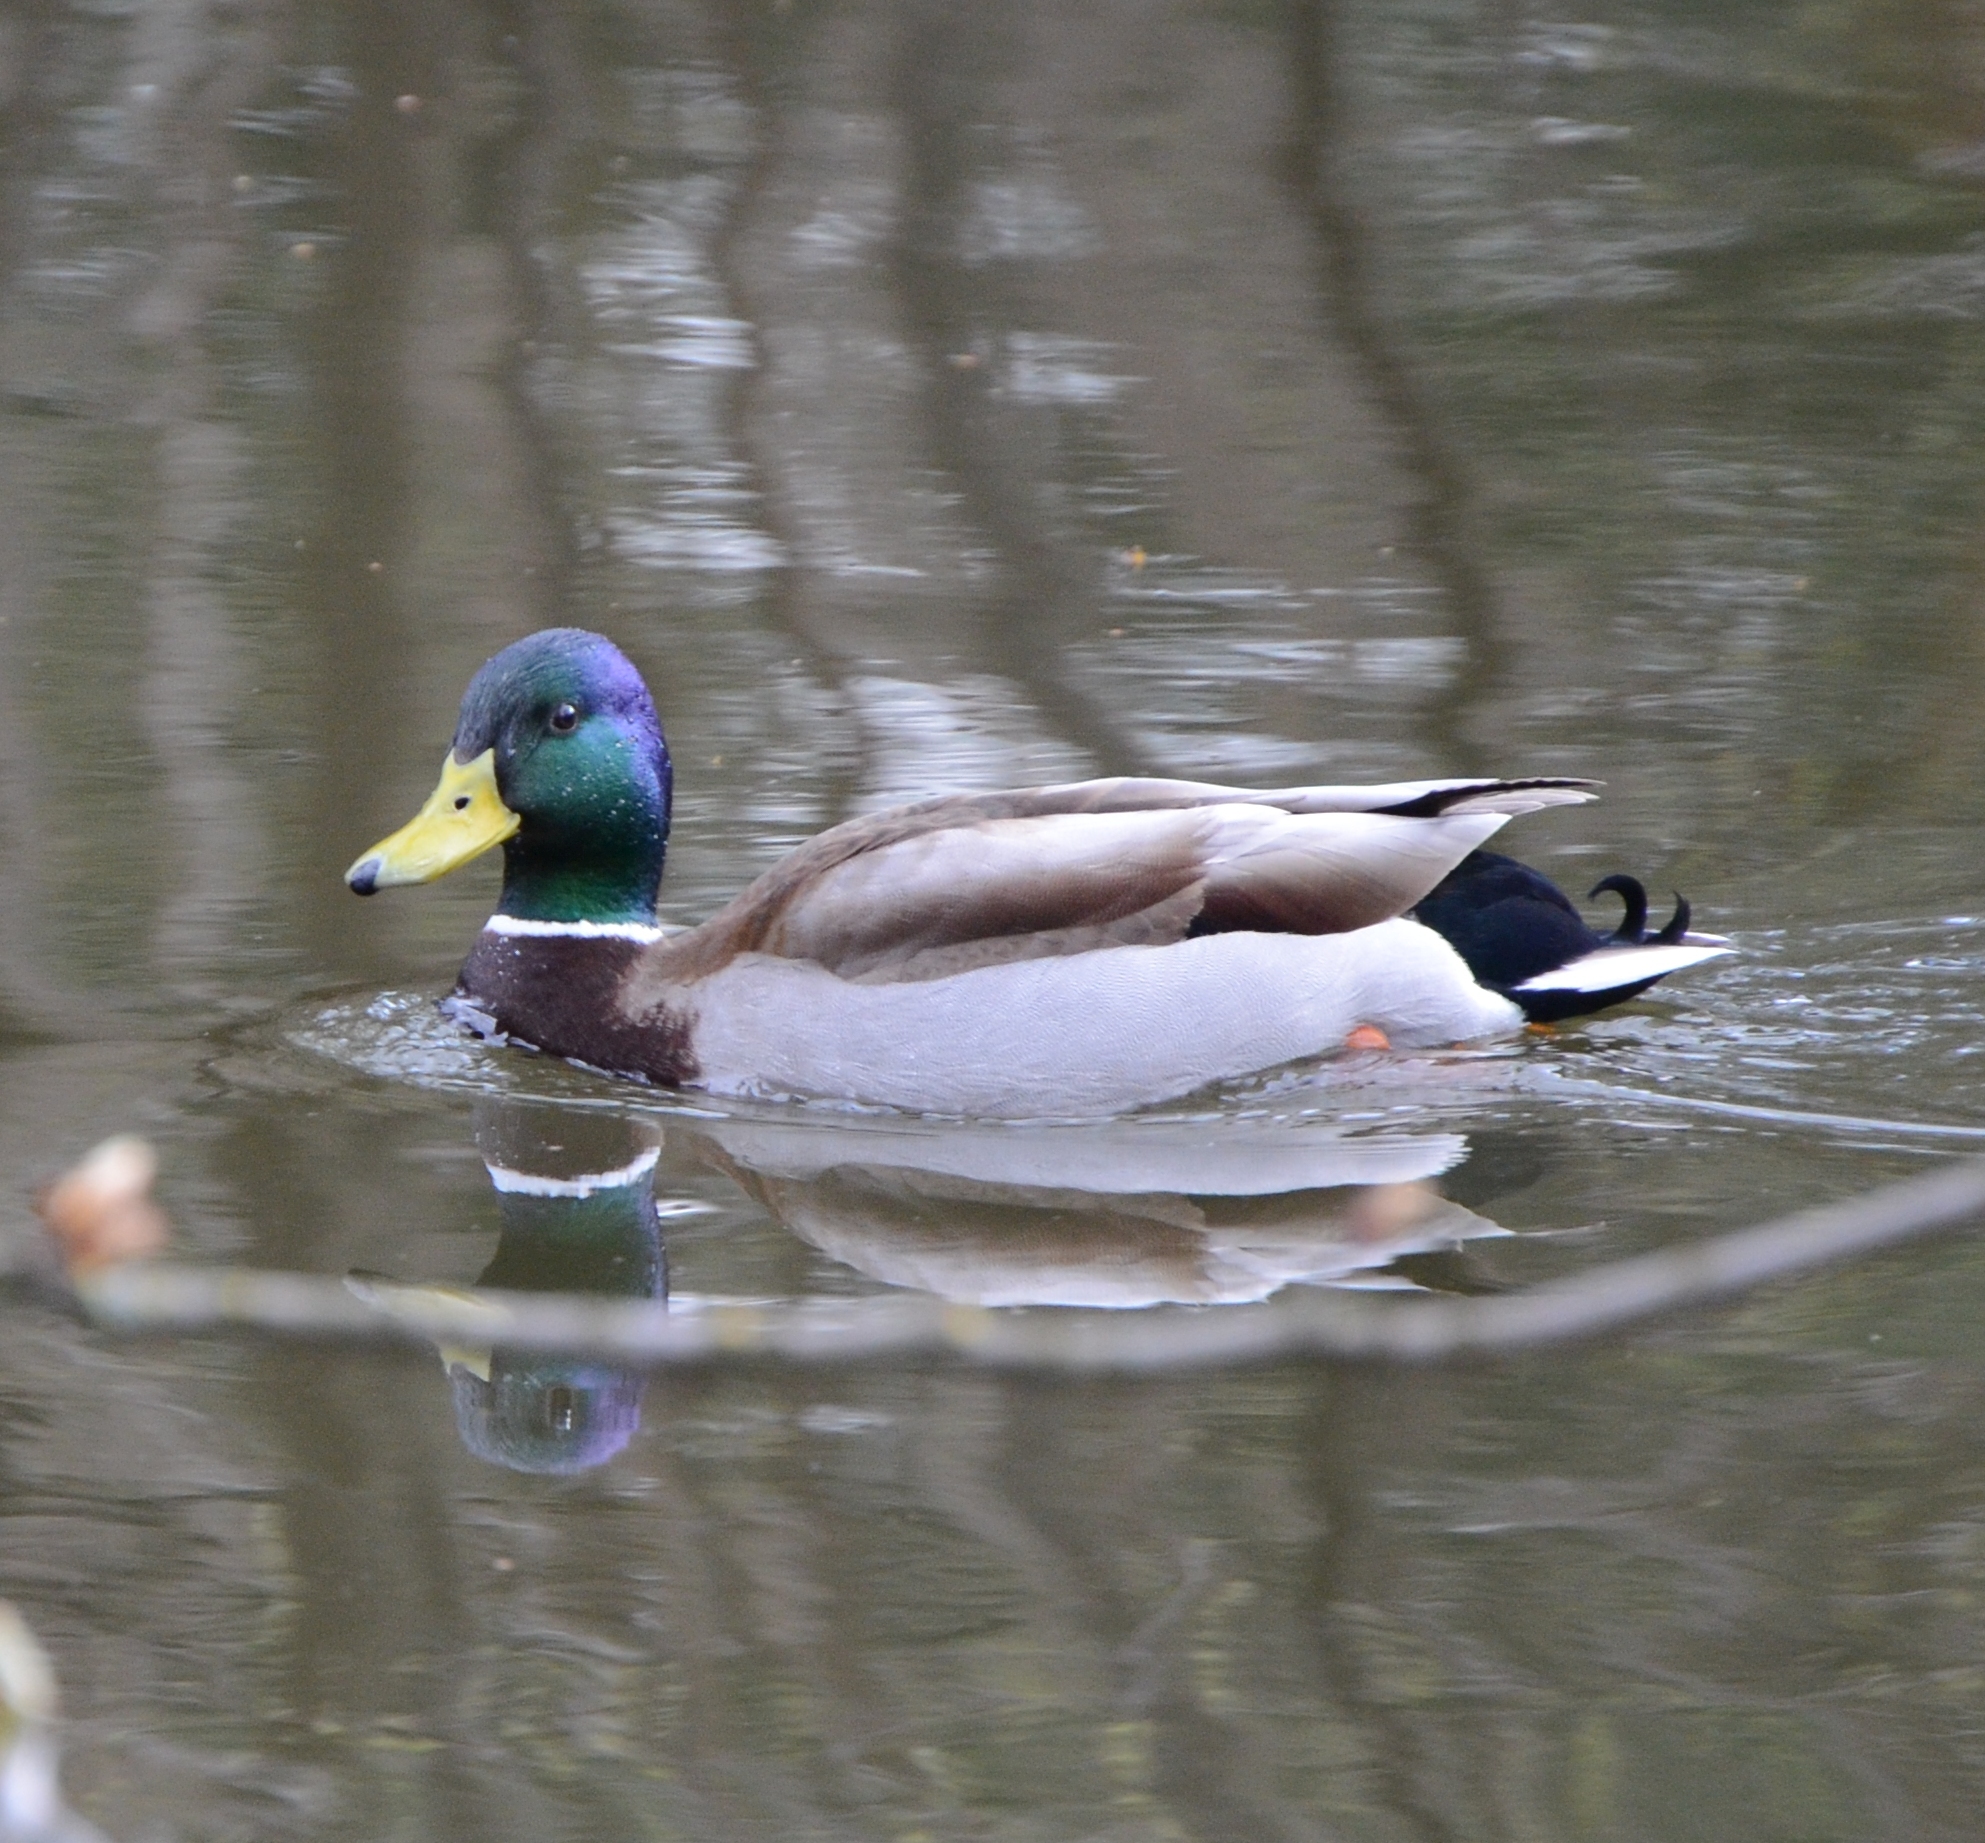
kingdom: Animalia
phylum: Chordata
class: Aves
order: Anseriformes
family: Anatidae
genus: Anas
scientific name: Anas platyrhynchos
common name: Mallard
